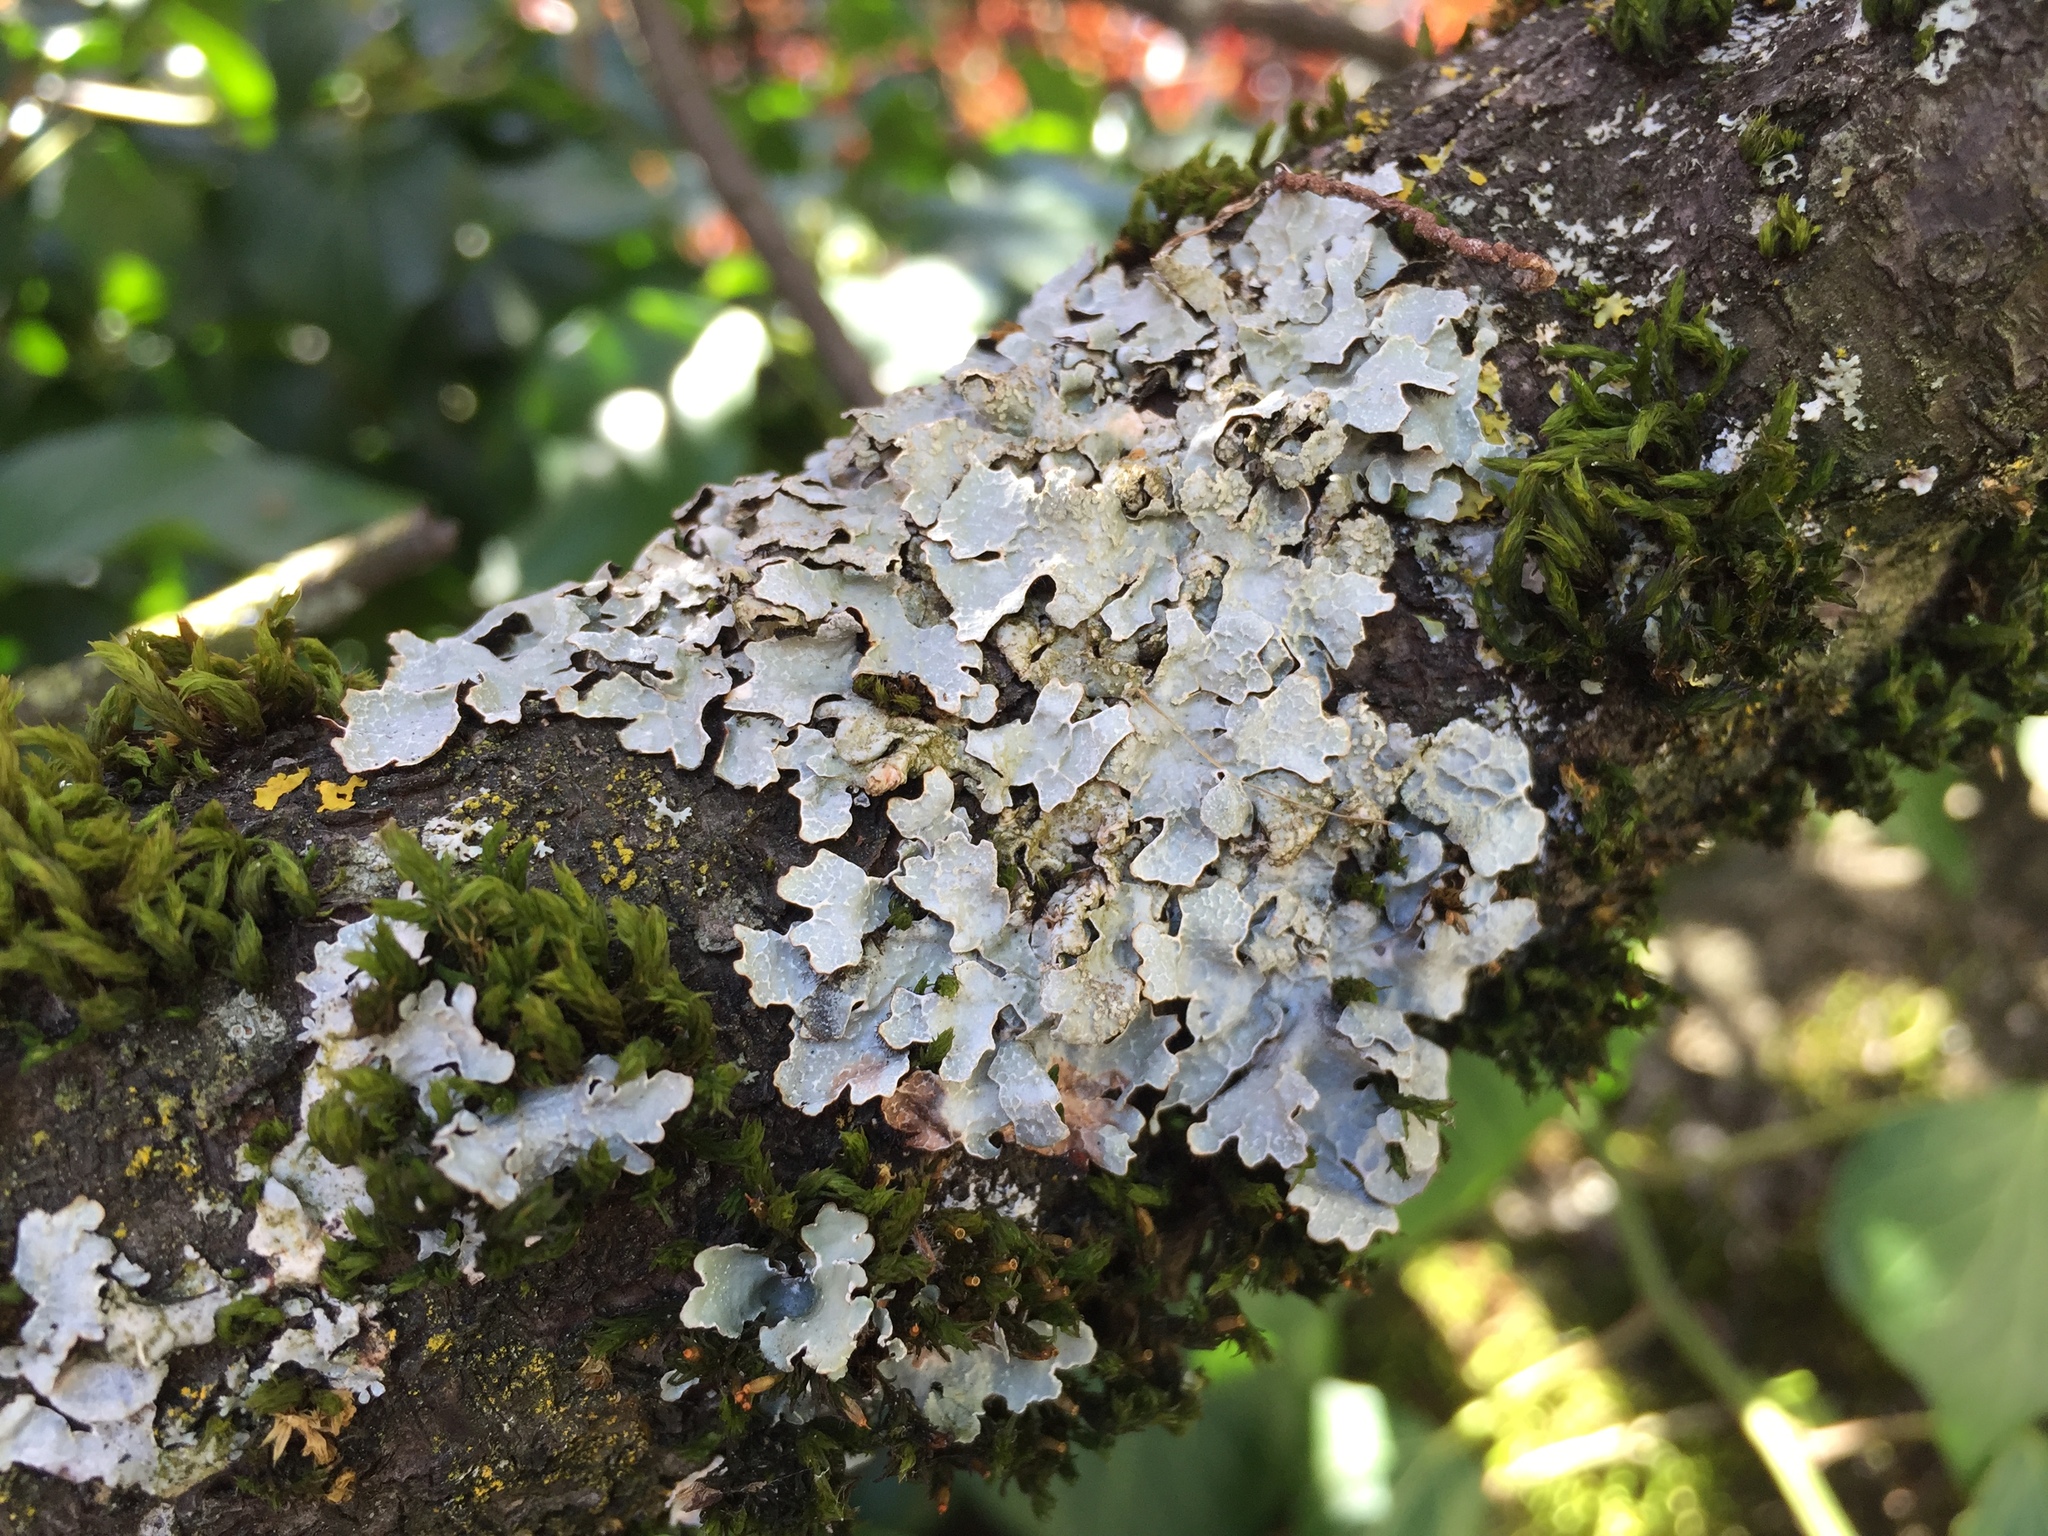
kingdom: Fungi
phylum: Ascomycota
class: Lecanoromycetes
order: Lecanorales
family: Parmeliaceae
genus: Parmelia
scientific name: Parmelia sulcata
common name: Netted shield lichen
